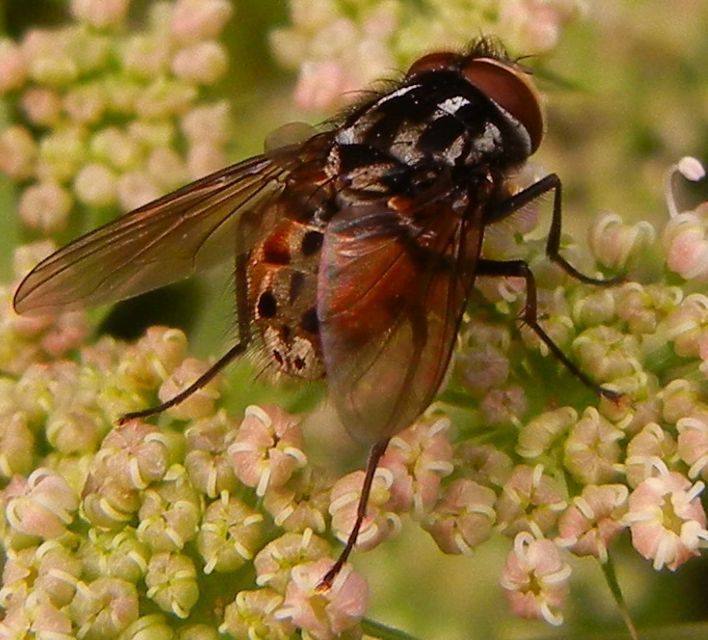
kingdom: Animalia
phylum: Arthropoda
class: Insecta
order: Diptera
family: Muscidae
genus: Graphomya
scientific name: Graphomya maculata
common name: Muscid fly
